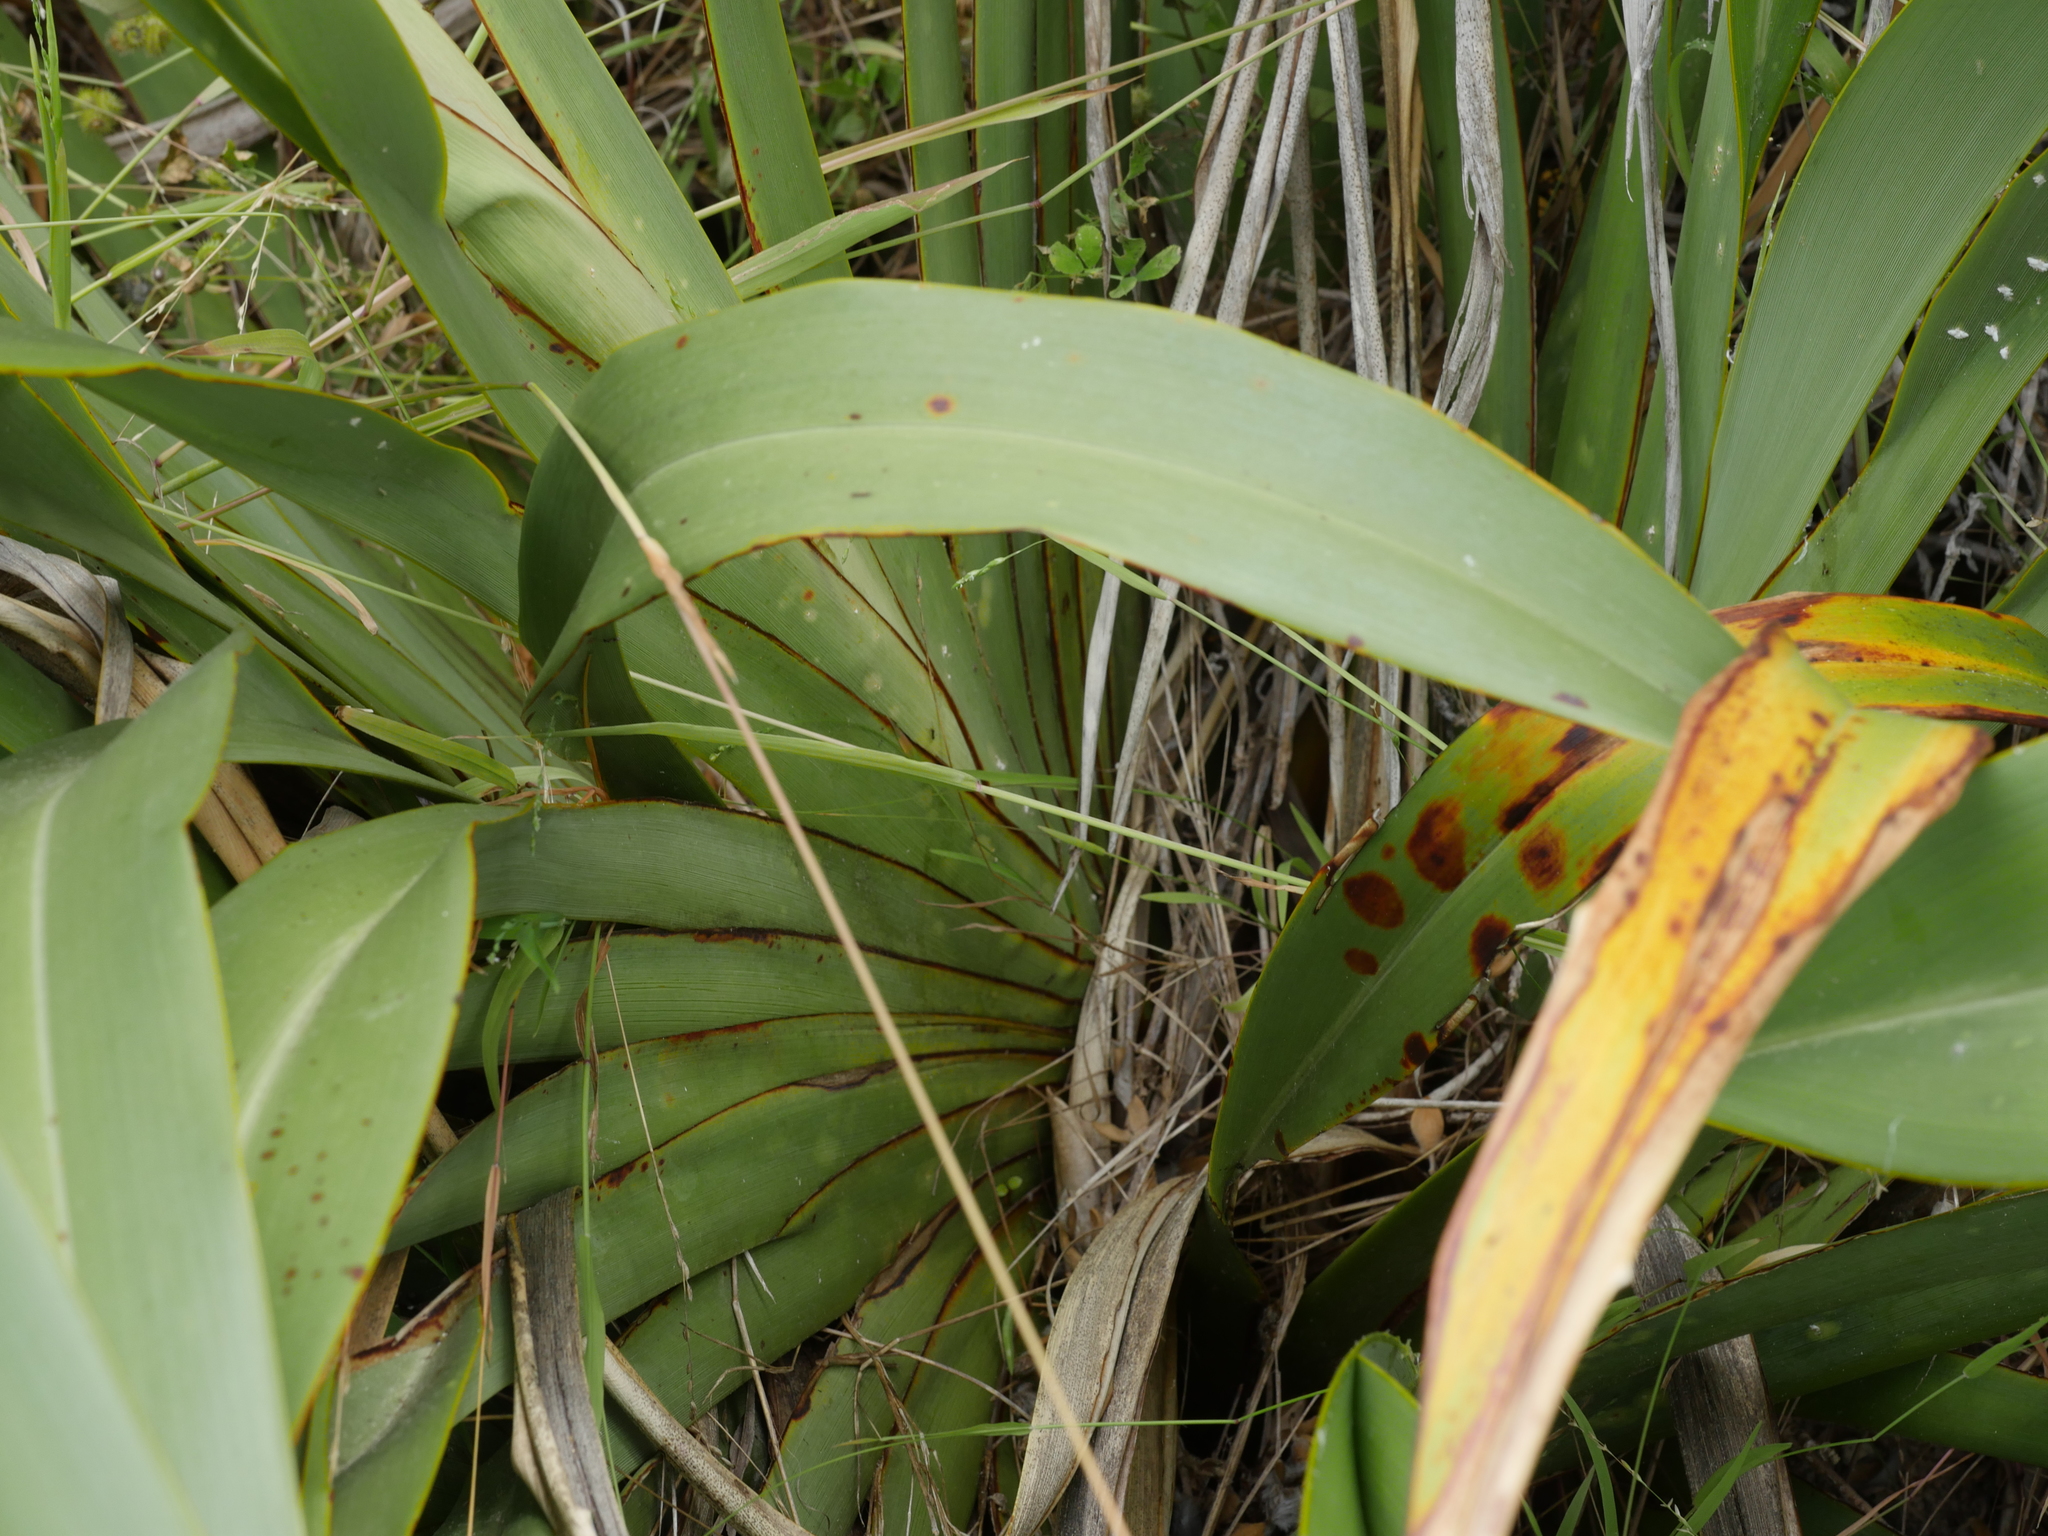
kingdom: Plantae
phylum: Tracheophyta
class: Liliopsida
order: Asparagales
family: Asphodelaceae
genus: Phormium
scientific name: Phormium colensoi
